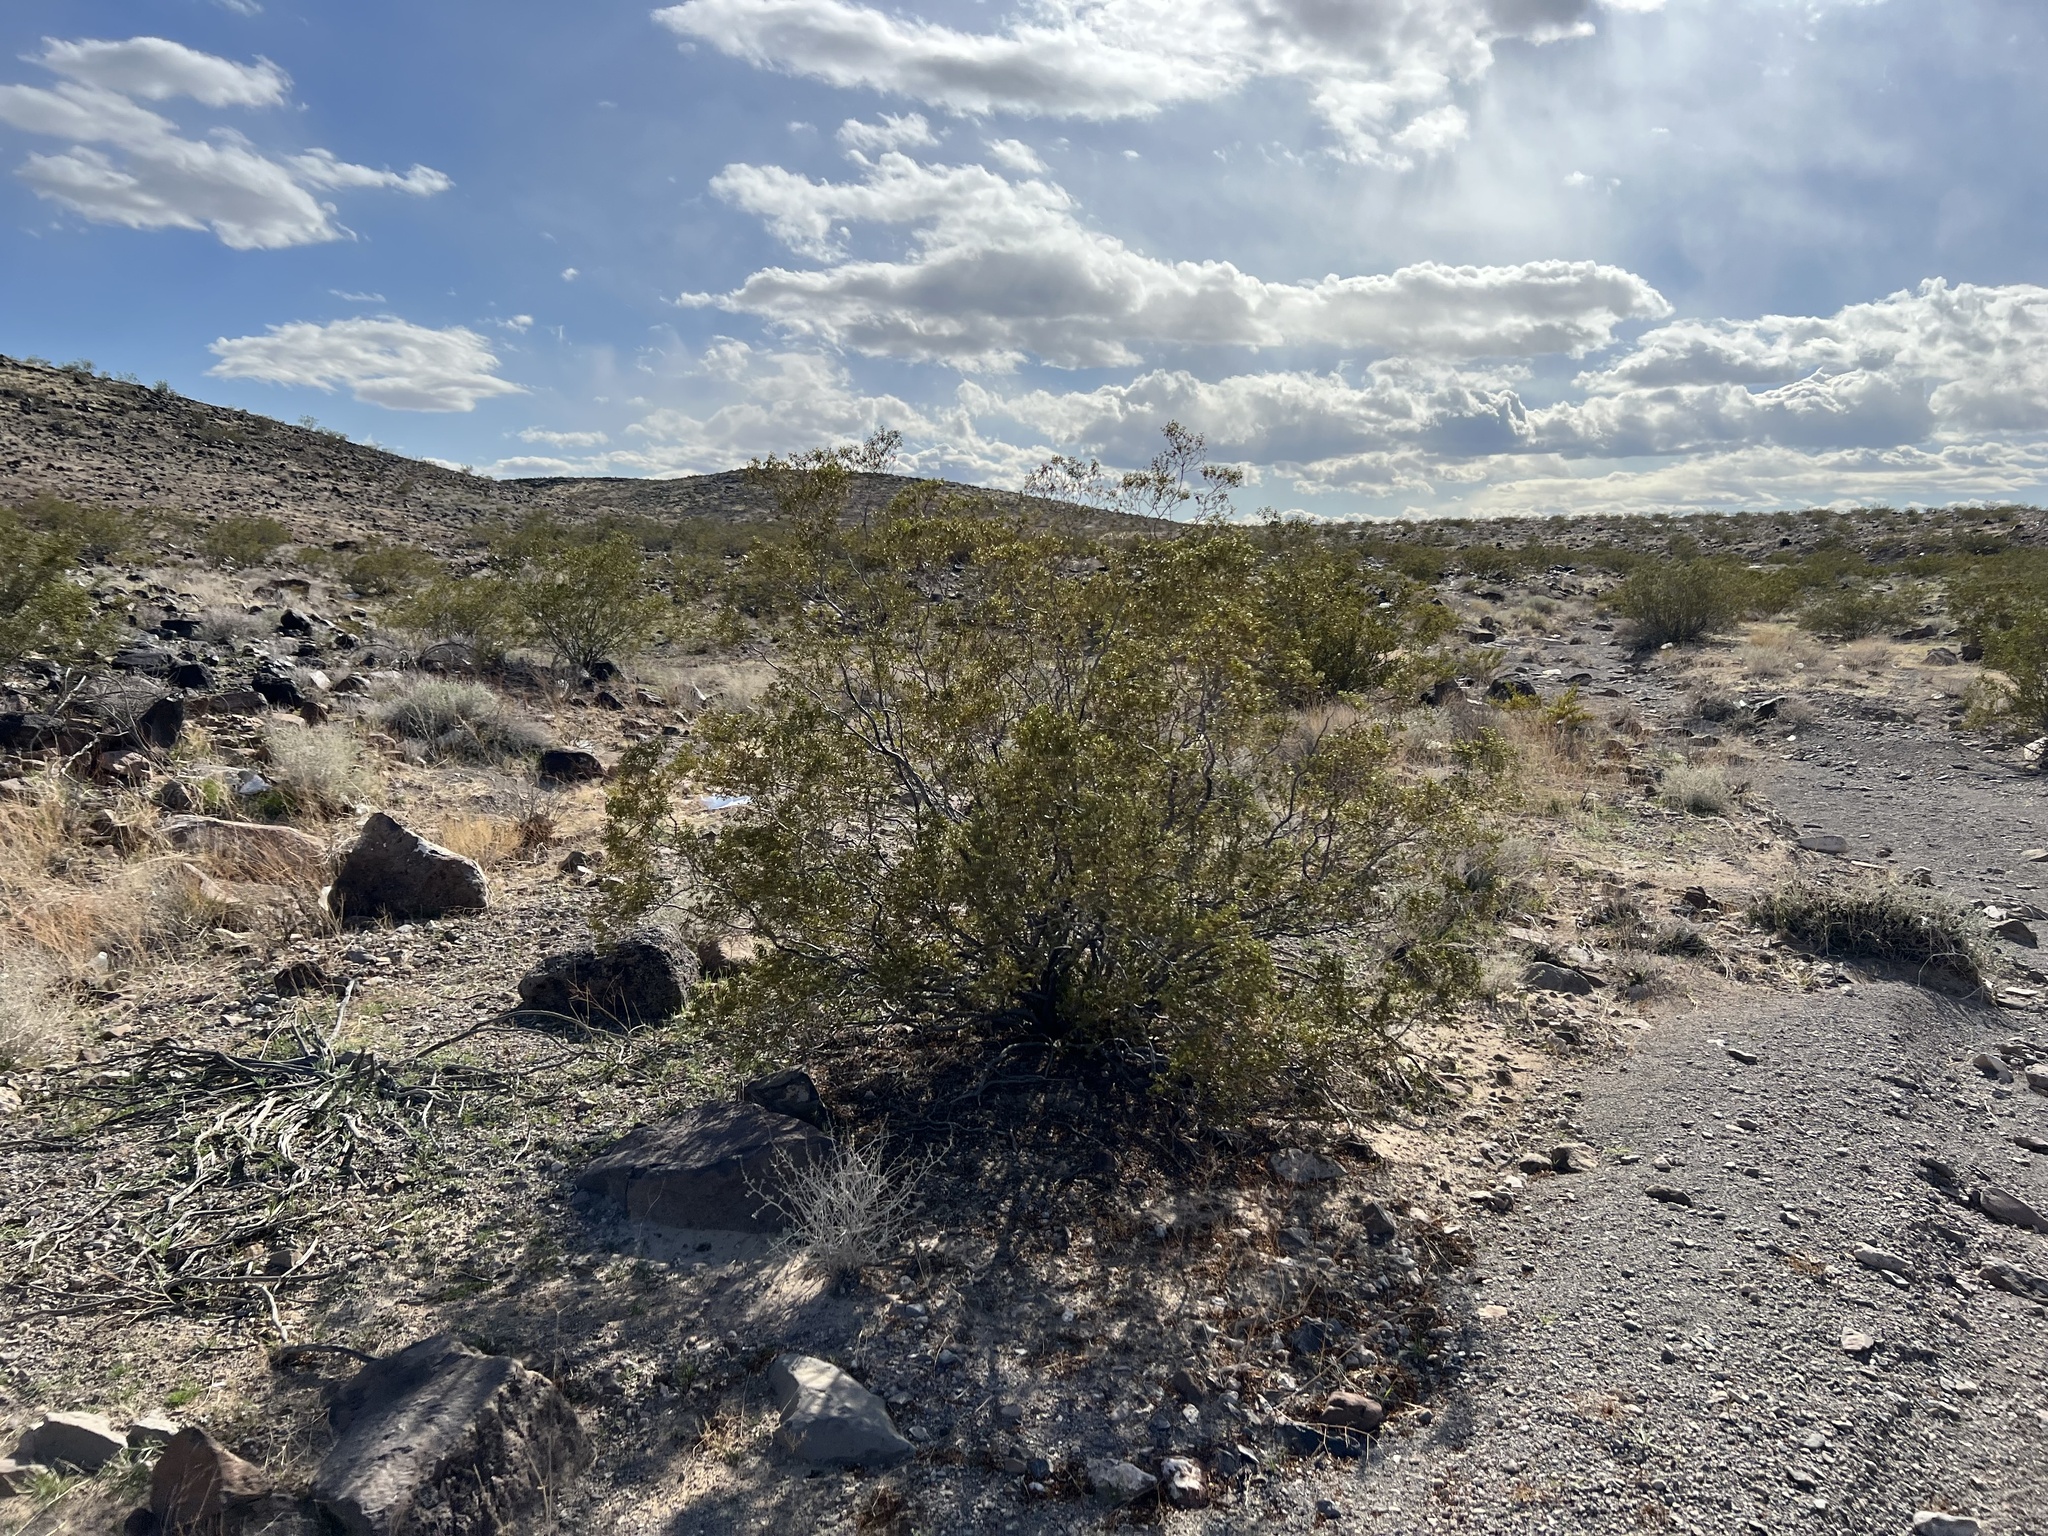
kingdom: Plantae
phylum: Tracheophyta
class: Magnoliopsida
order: Zygophyllales
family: Zygophyllaceae
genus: Larrea
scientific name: Larrea tridentata
